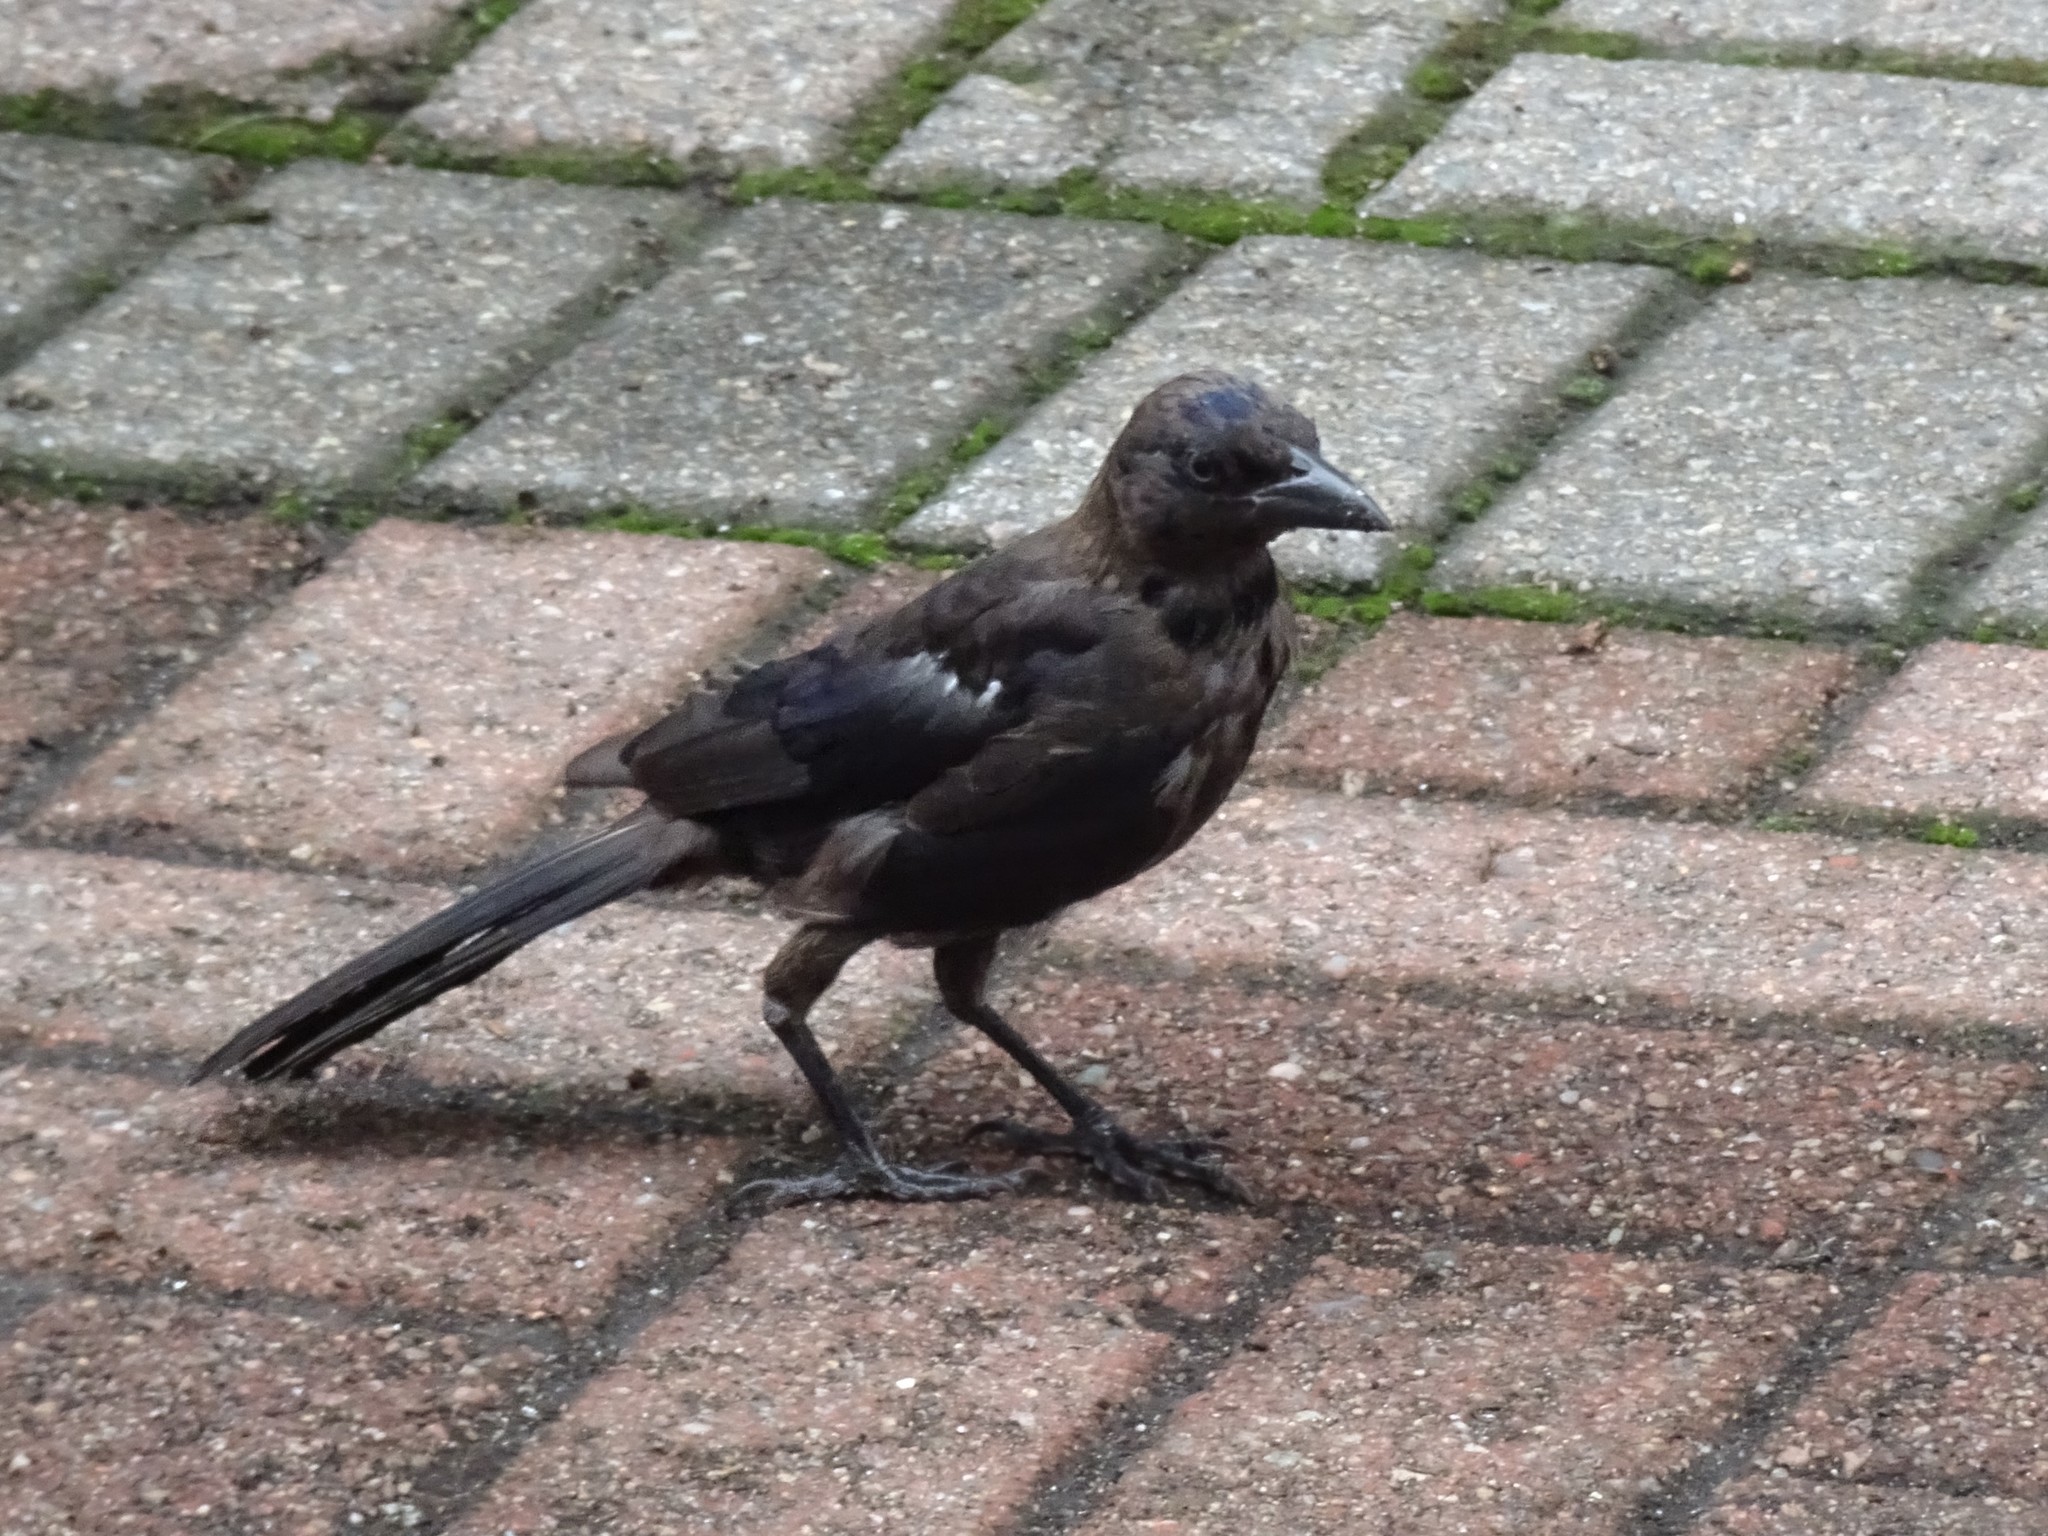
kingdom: Animalia
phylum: Chordata
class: Aves
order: Passeriformes
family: Icteridae
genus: Quiscalus
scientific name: Quiscalus quiscula
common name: Common grackle
